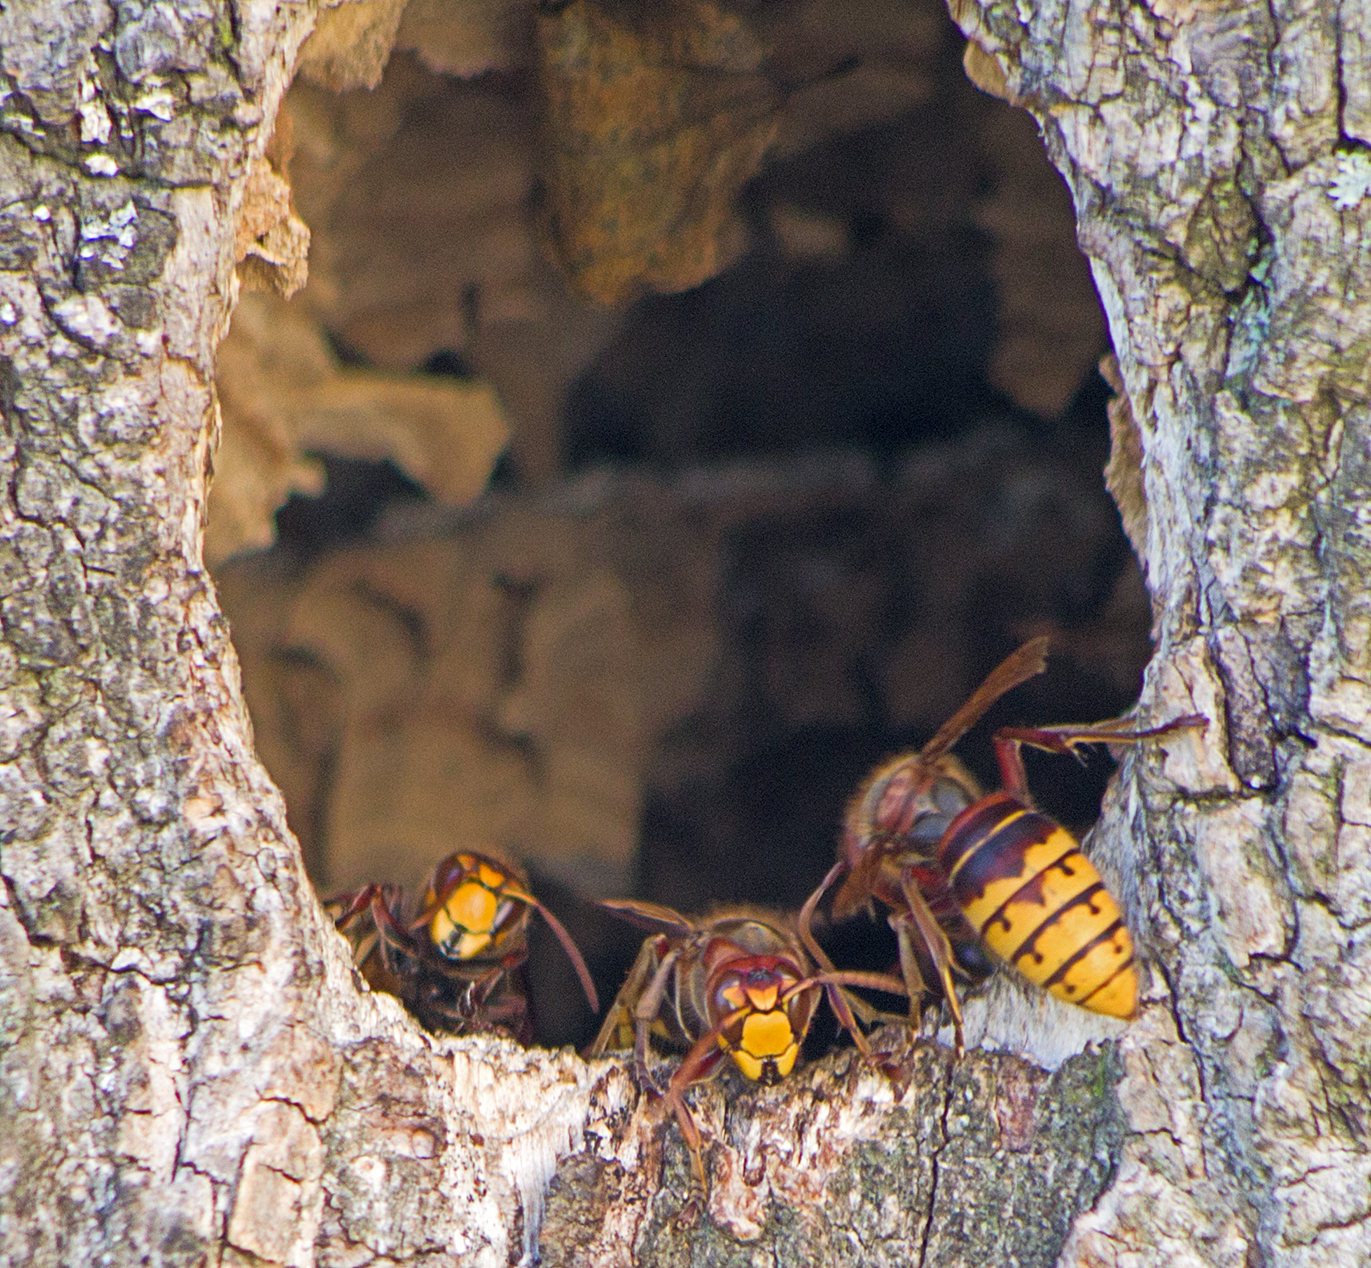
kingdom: Animalia
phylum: Arthropoda
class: Insecta
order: Hymenoptera
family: Vespidae
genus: Vespa
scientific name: Vespa crabro
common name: Hornet
